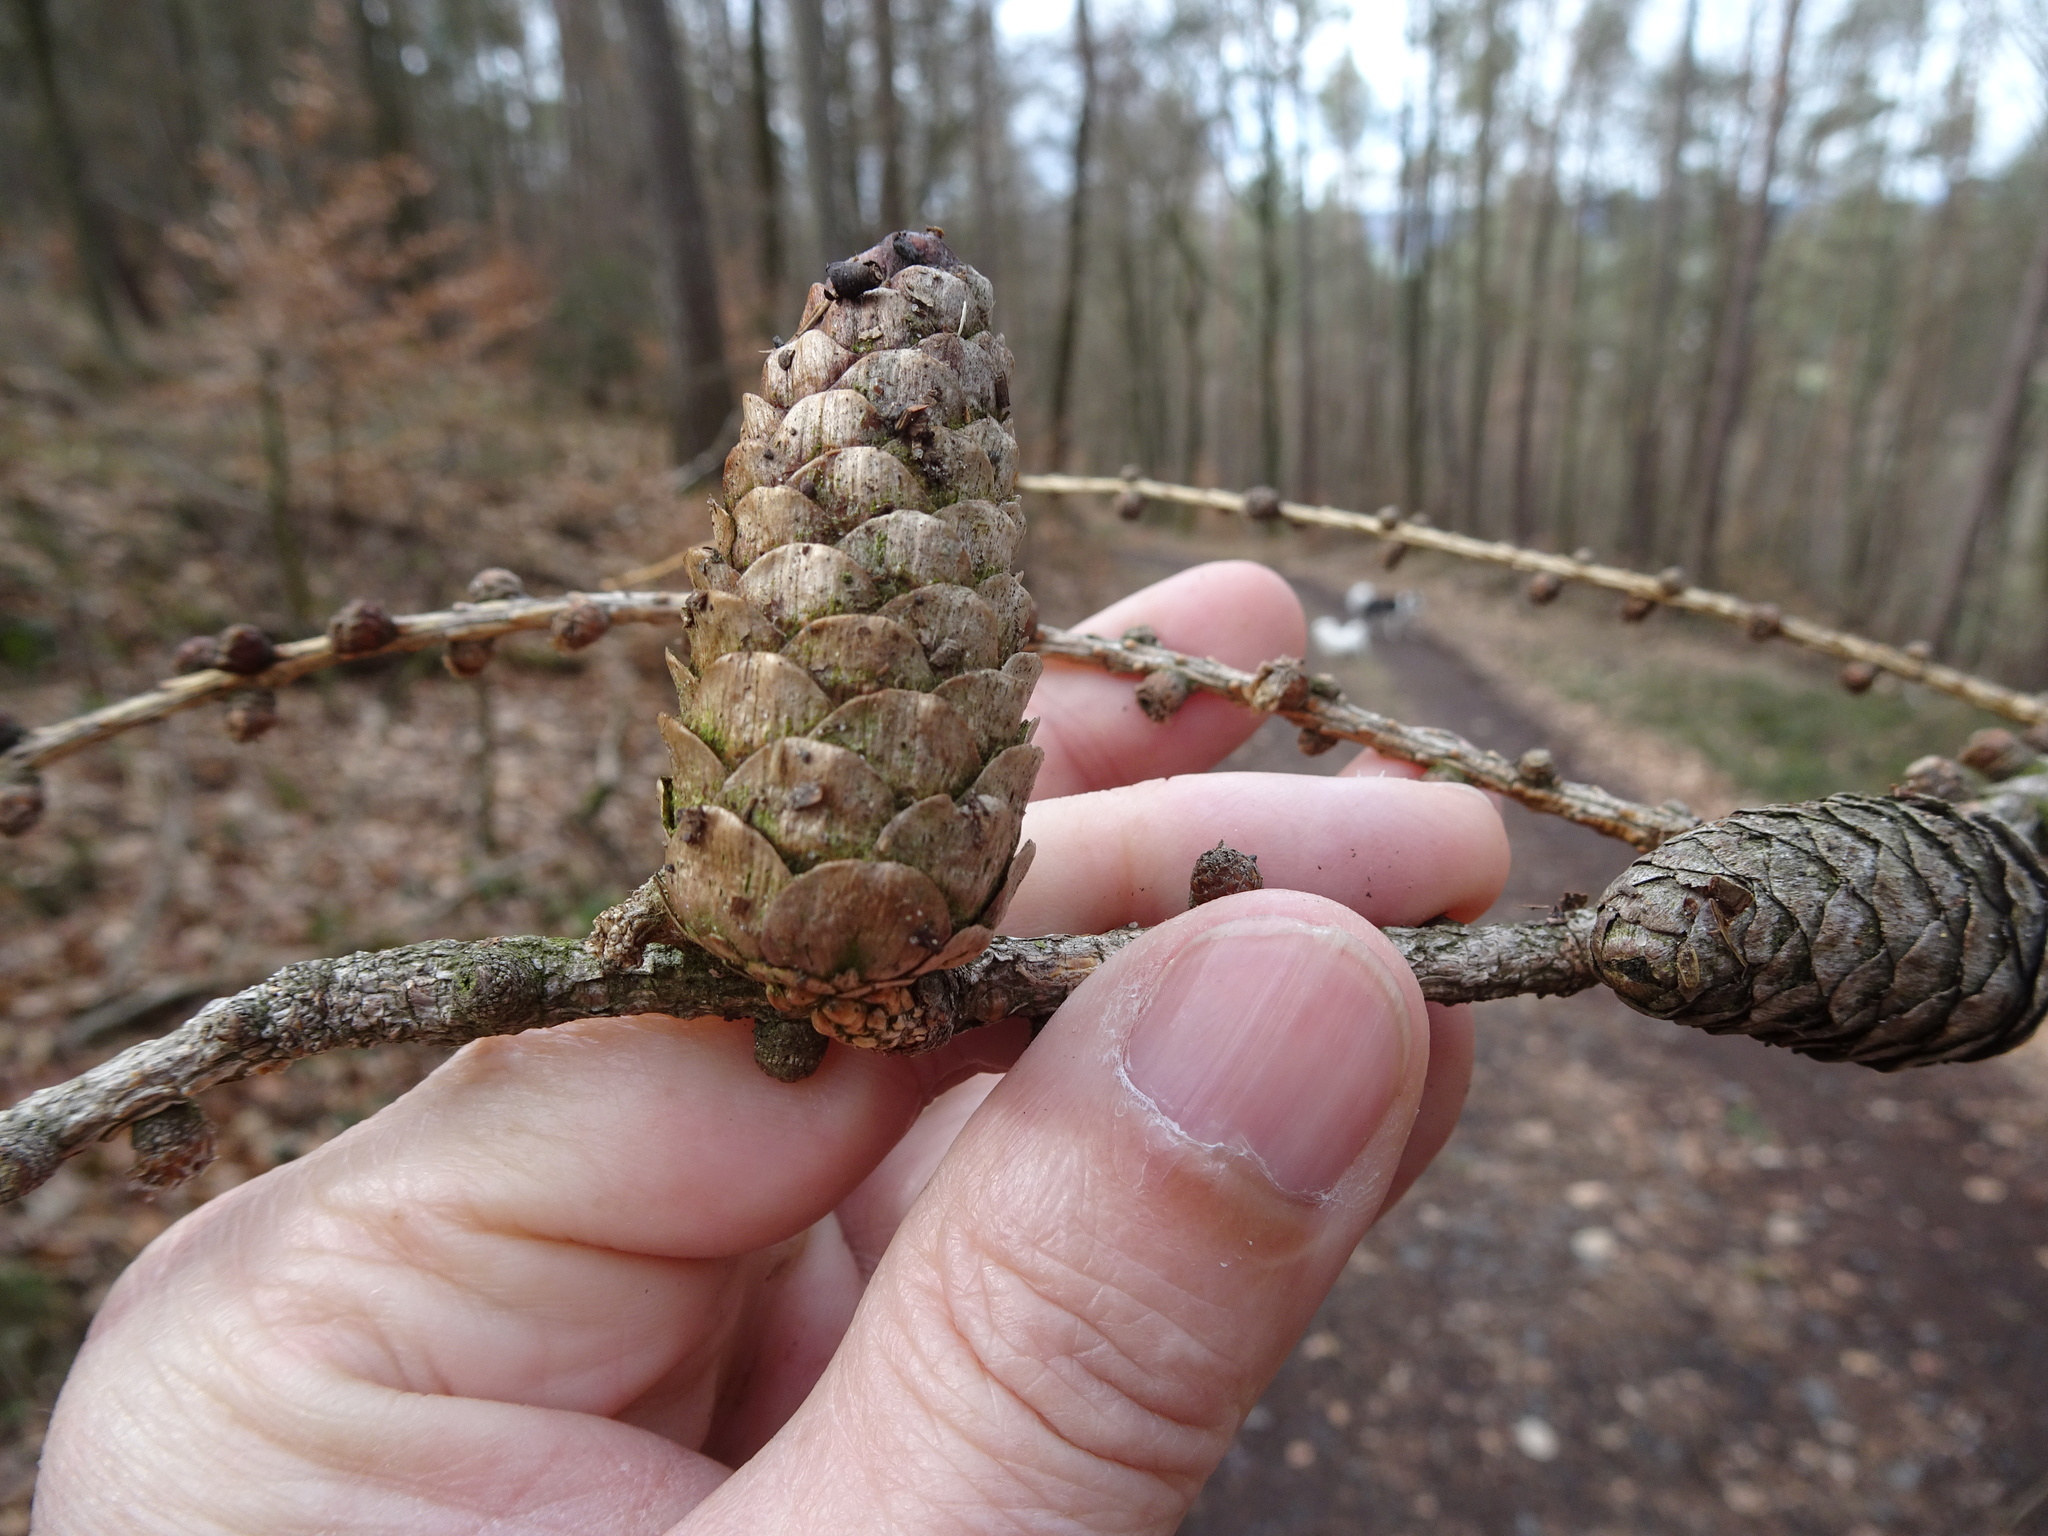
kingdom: Plantae
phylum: Tracheophyta
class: Pinopsida
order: Pinales
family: Pinaceae
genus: Larix
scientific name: Larix decidua
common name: European larch
